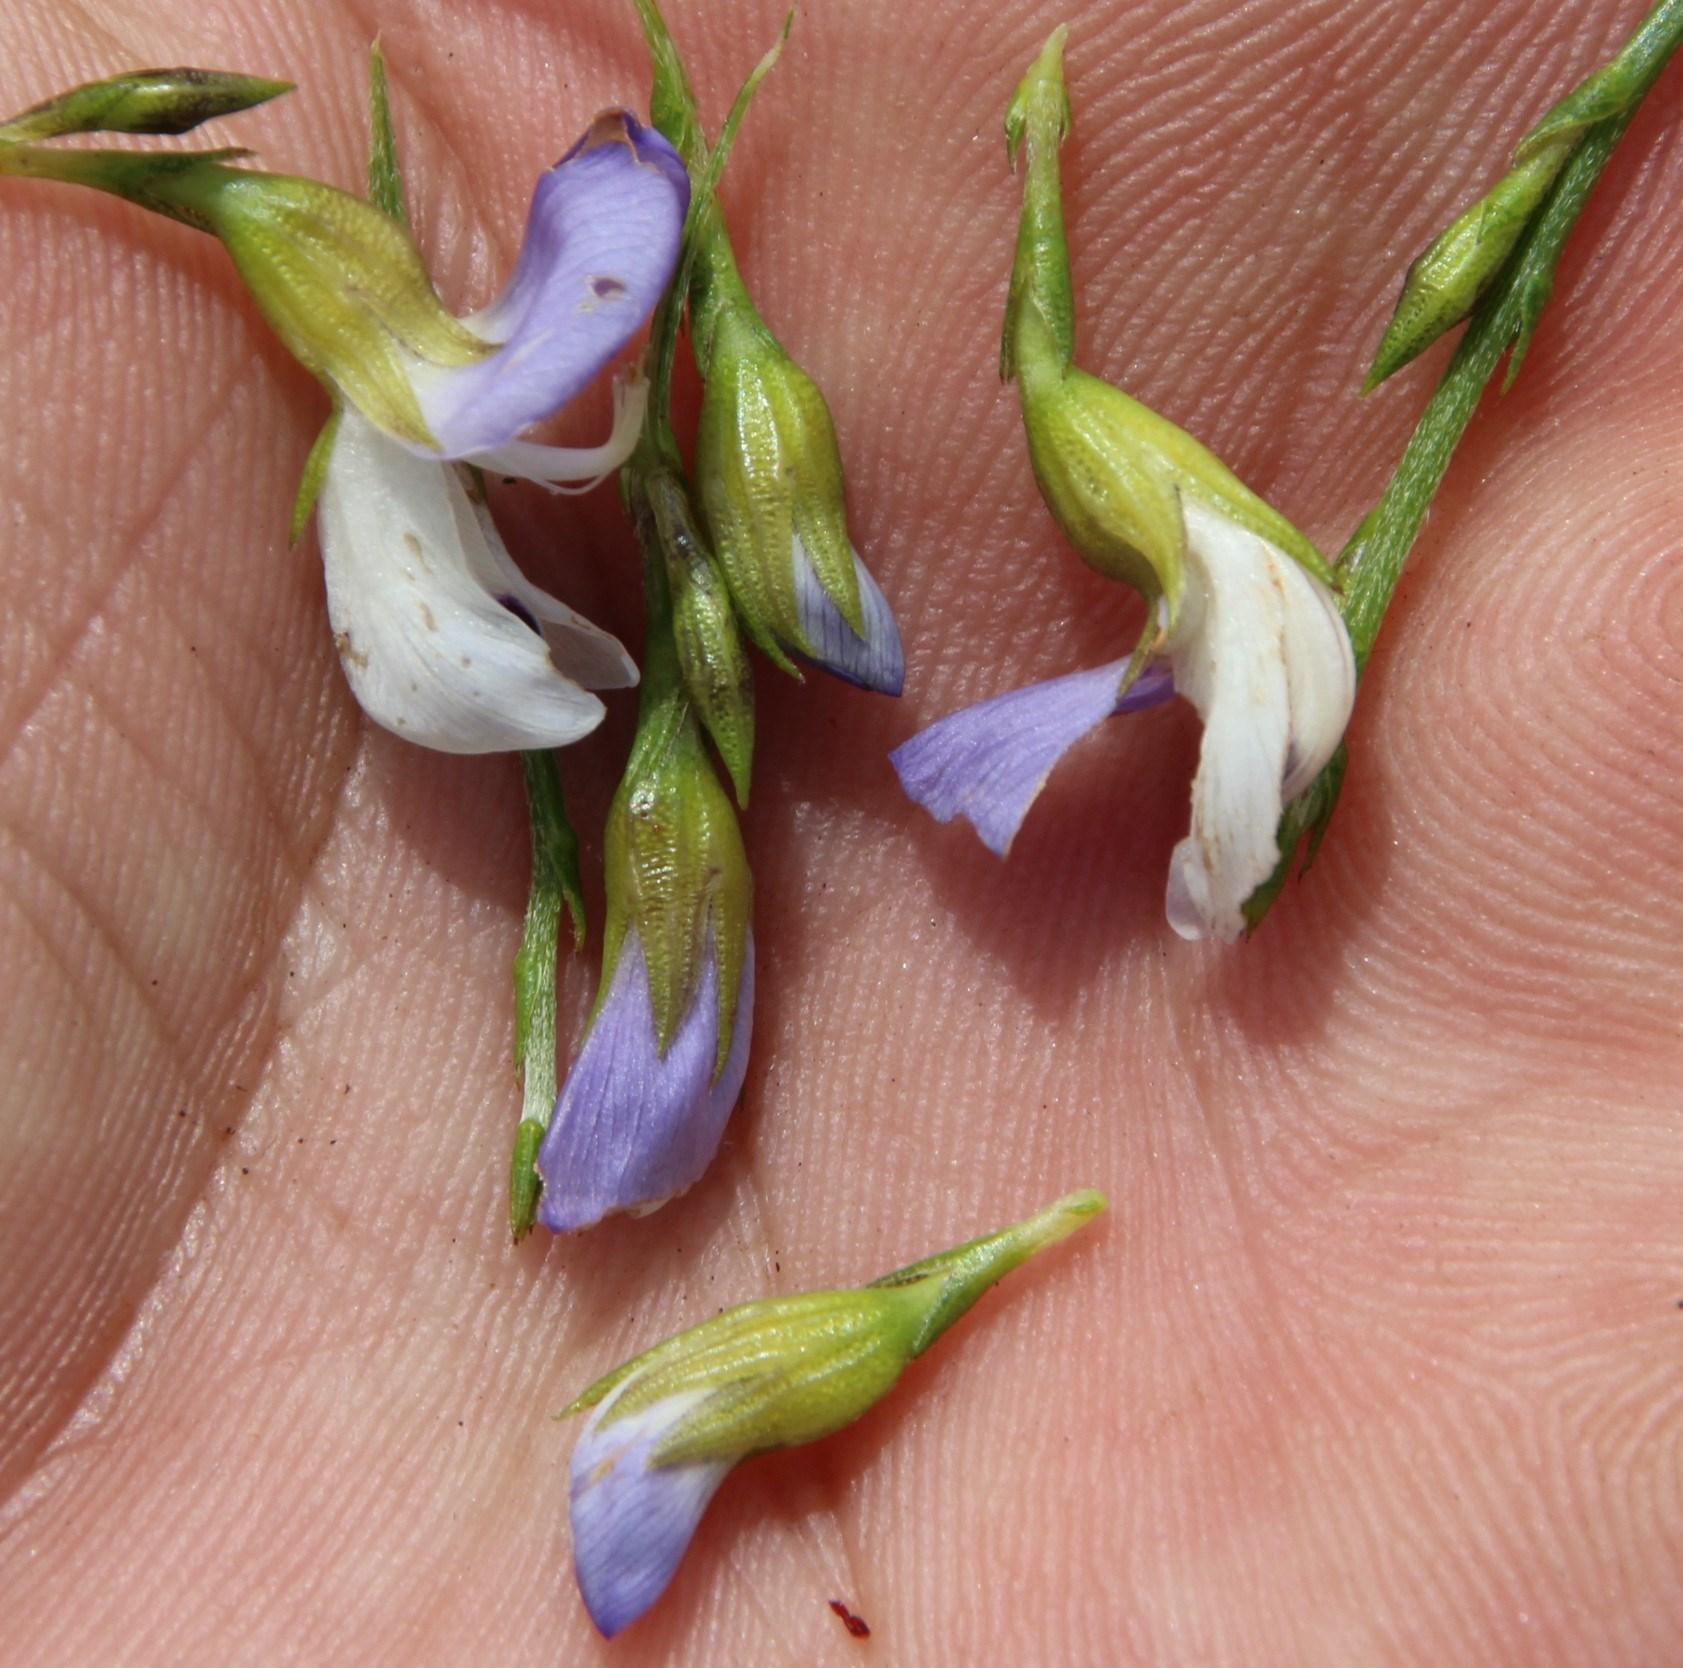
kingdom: Plantae
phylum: Tracheophyta
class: Magnoliopsida
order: Fabales
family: Fabaceae
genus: Psoralea
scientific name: Psoralea aphylla
